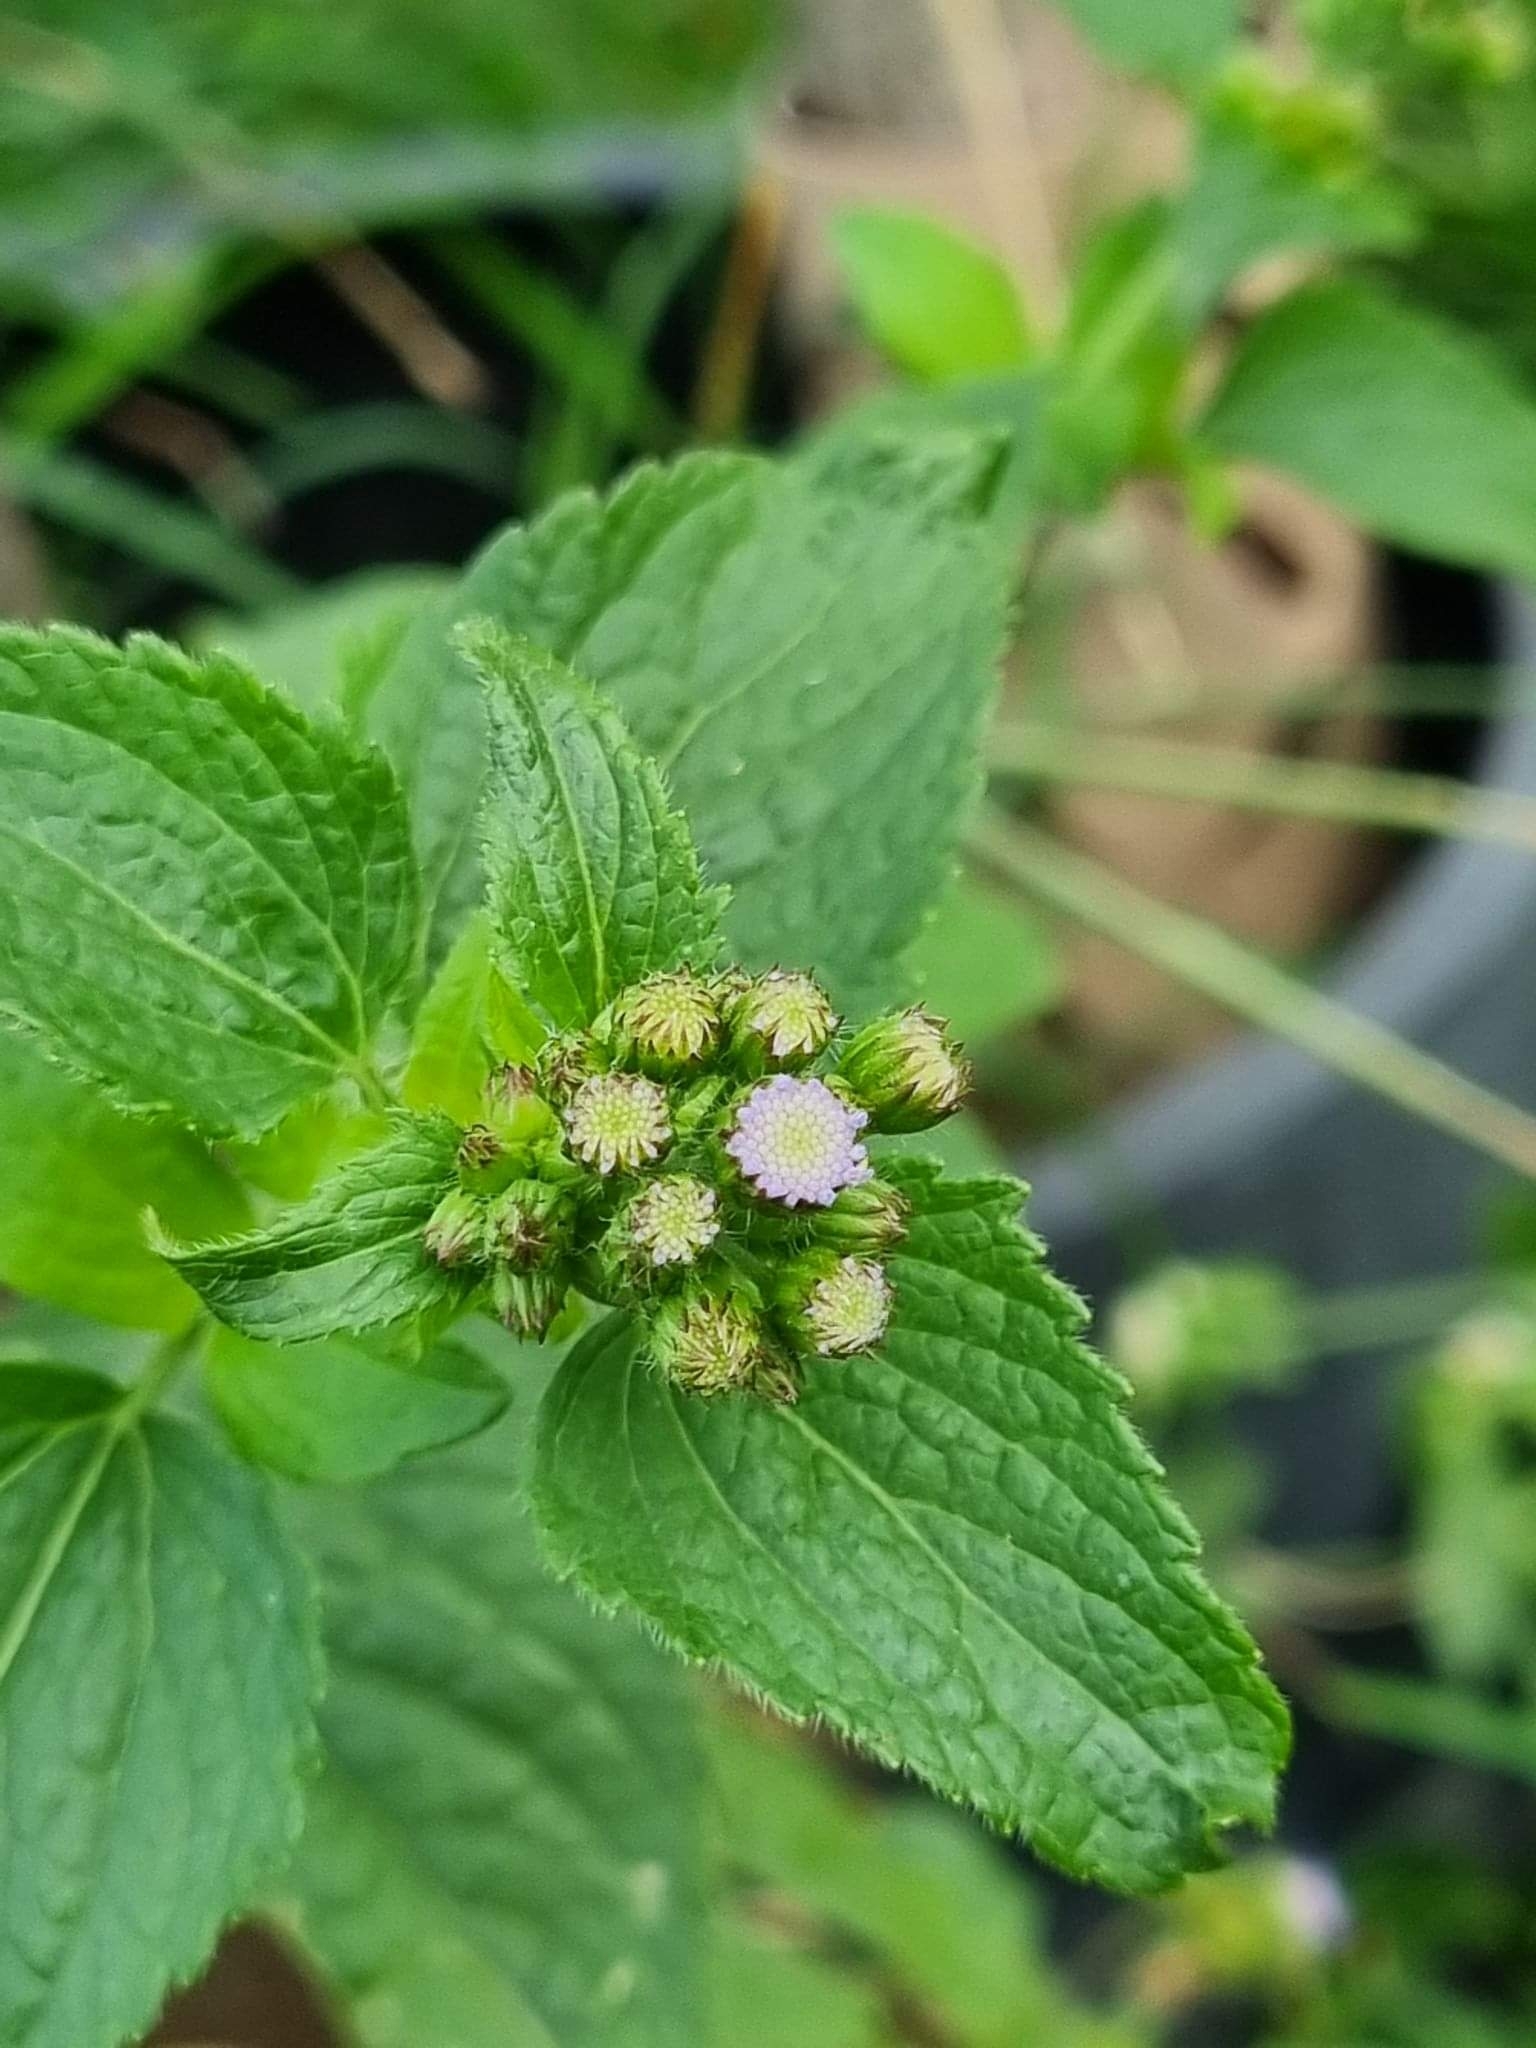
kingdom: Plantae
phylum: Tracheophyta
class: Magnoliopsida
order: Asterales
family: Asteraceae
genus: Ageratum
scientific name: Ageratum conyzoides
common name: Tropical whiteweed
